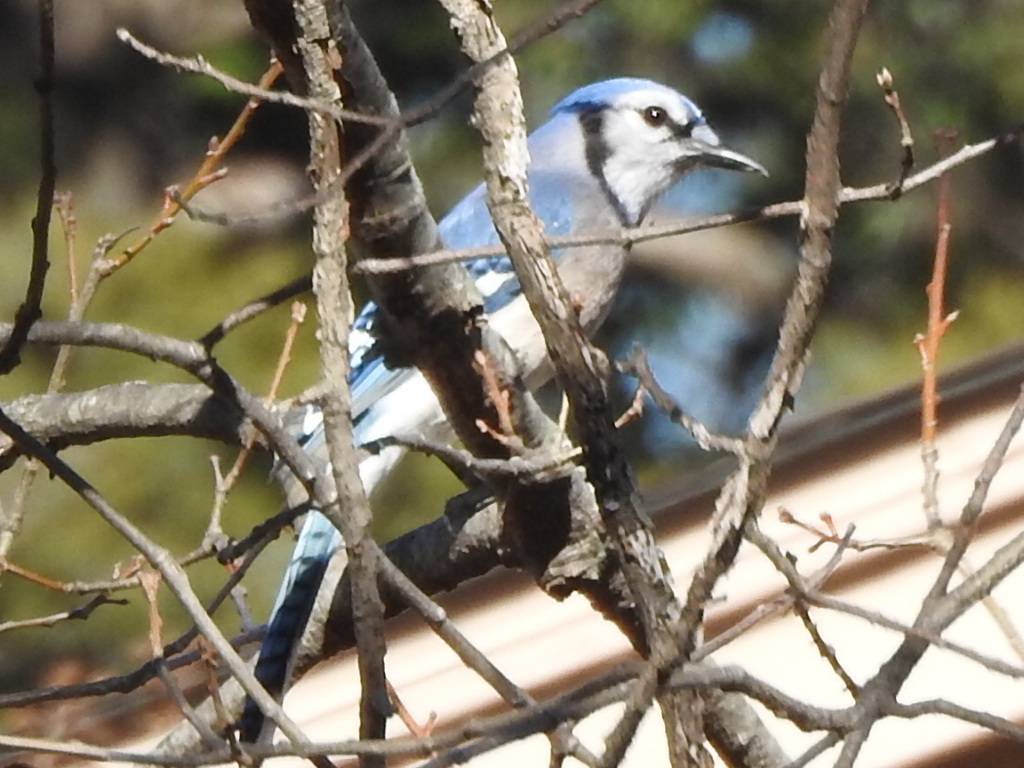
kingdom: Animalia
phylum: Chordata
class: Aves
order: Passeriformes
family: Corvidae
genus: Cyanocitta
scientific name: Cyanocitta cristata
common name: Blue jay
